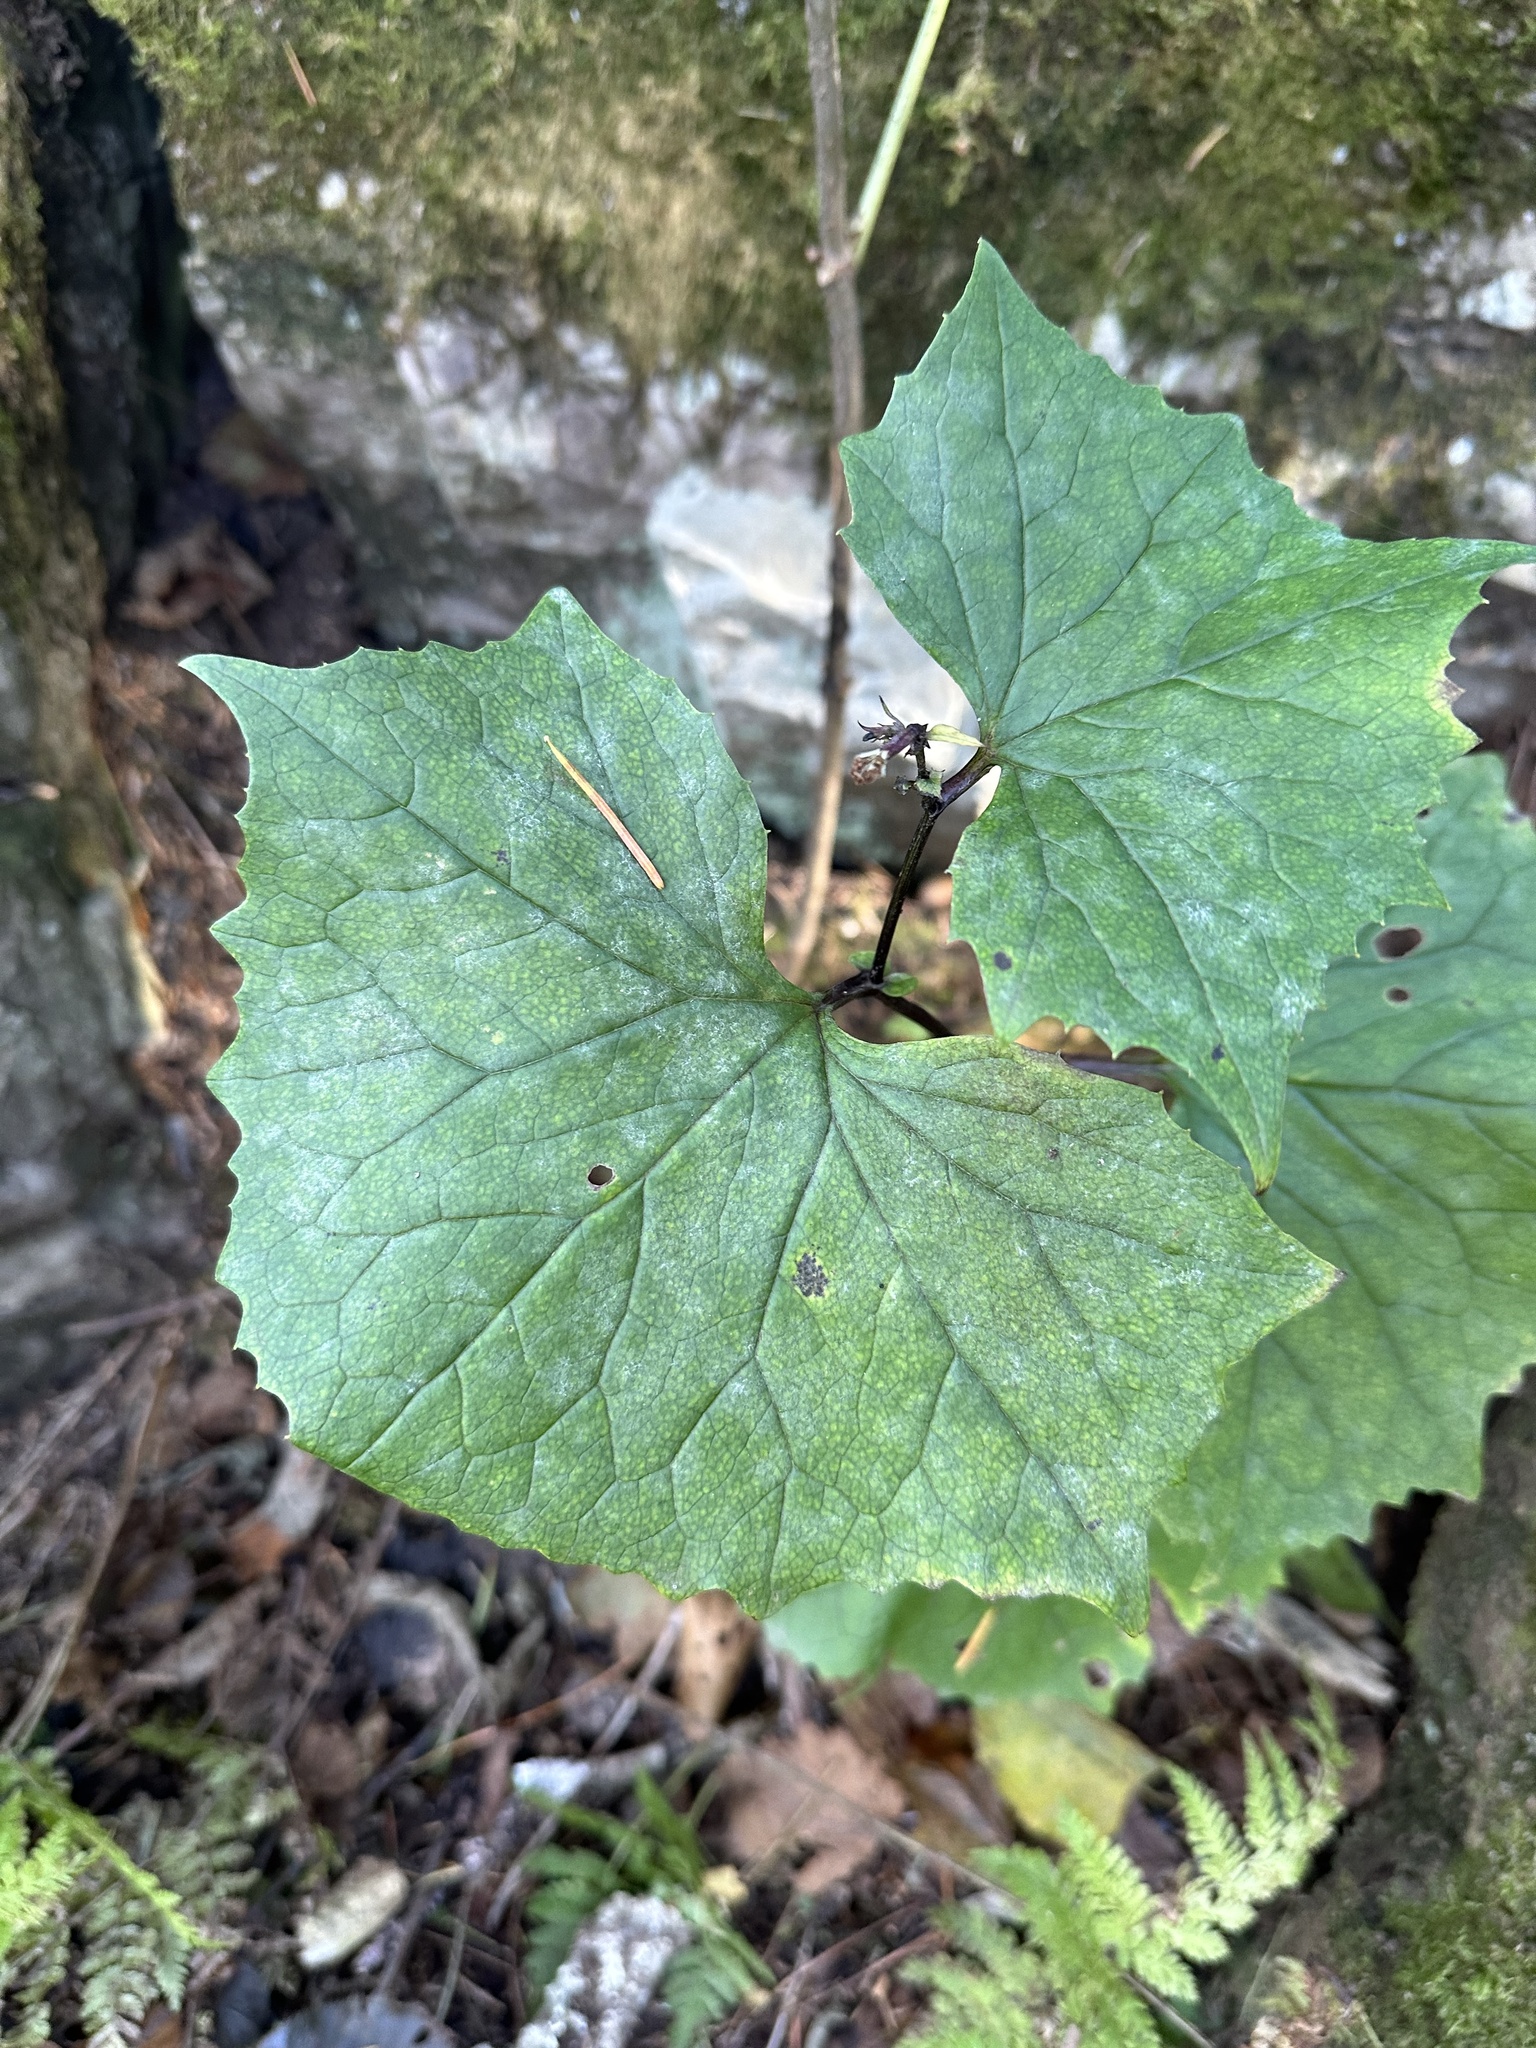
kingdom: Plantae
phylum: Tracheophyta
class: Magnoliopsida
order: Asterales
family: Asteraceae
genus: Parasenecio
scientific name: Parasenecio praetermissus
